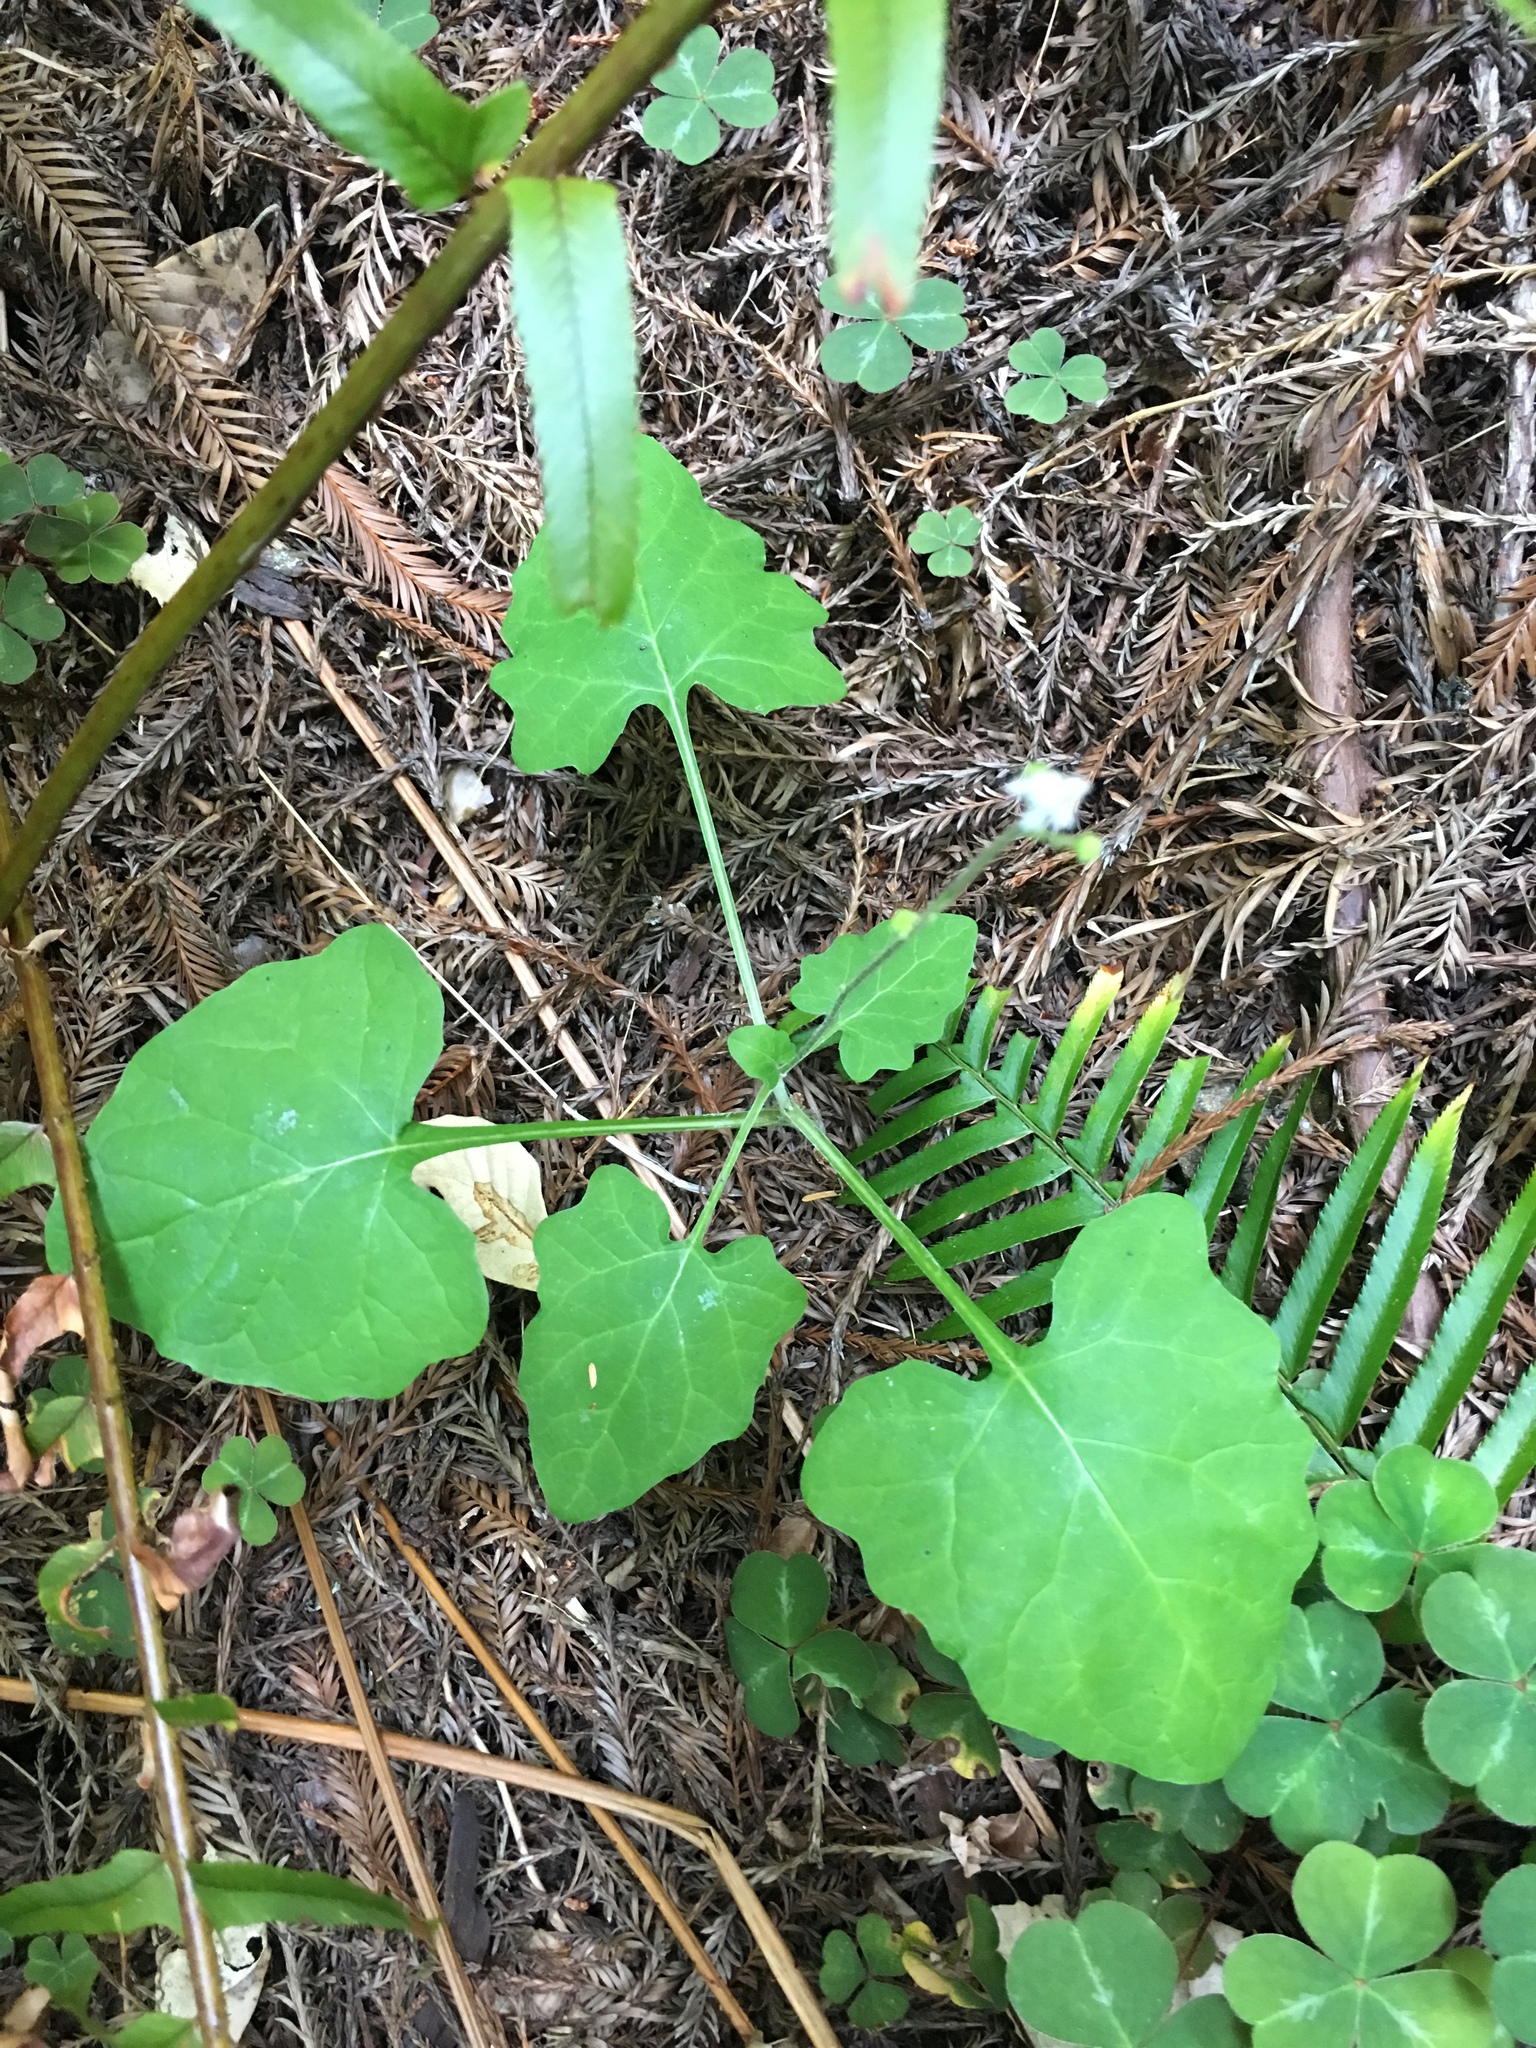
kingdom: Plantae
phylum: Tracheophyta
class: Magnoliopsida
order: Asterales
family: Asteraceae
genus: Adenocaulon
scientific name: Adenocaulon bicolor
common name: Trailplant
